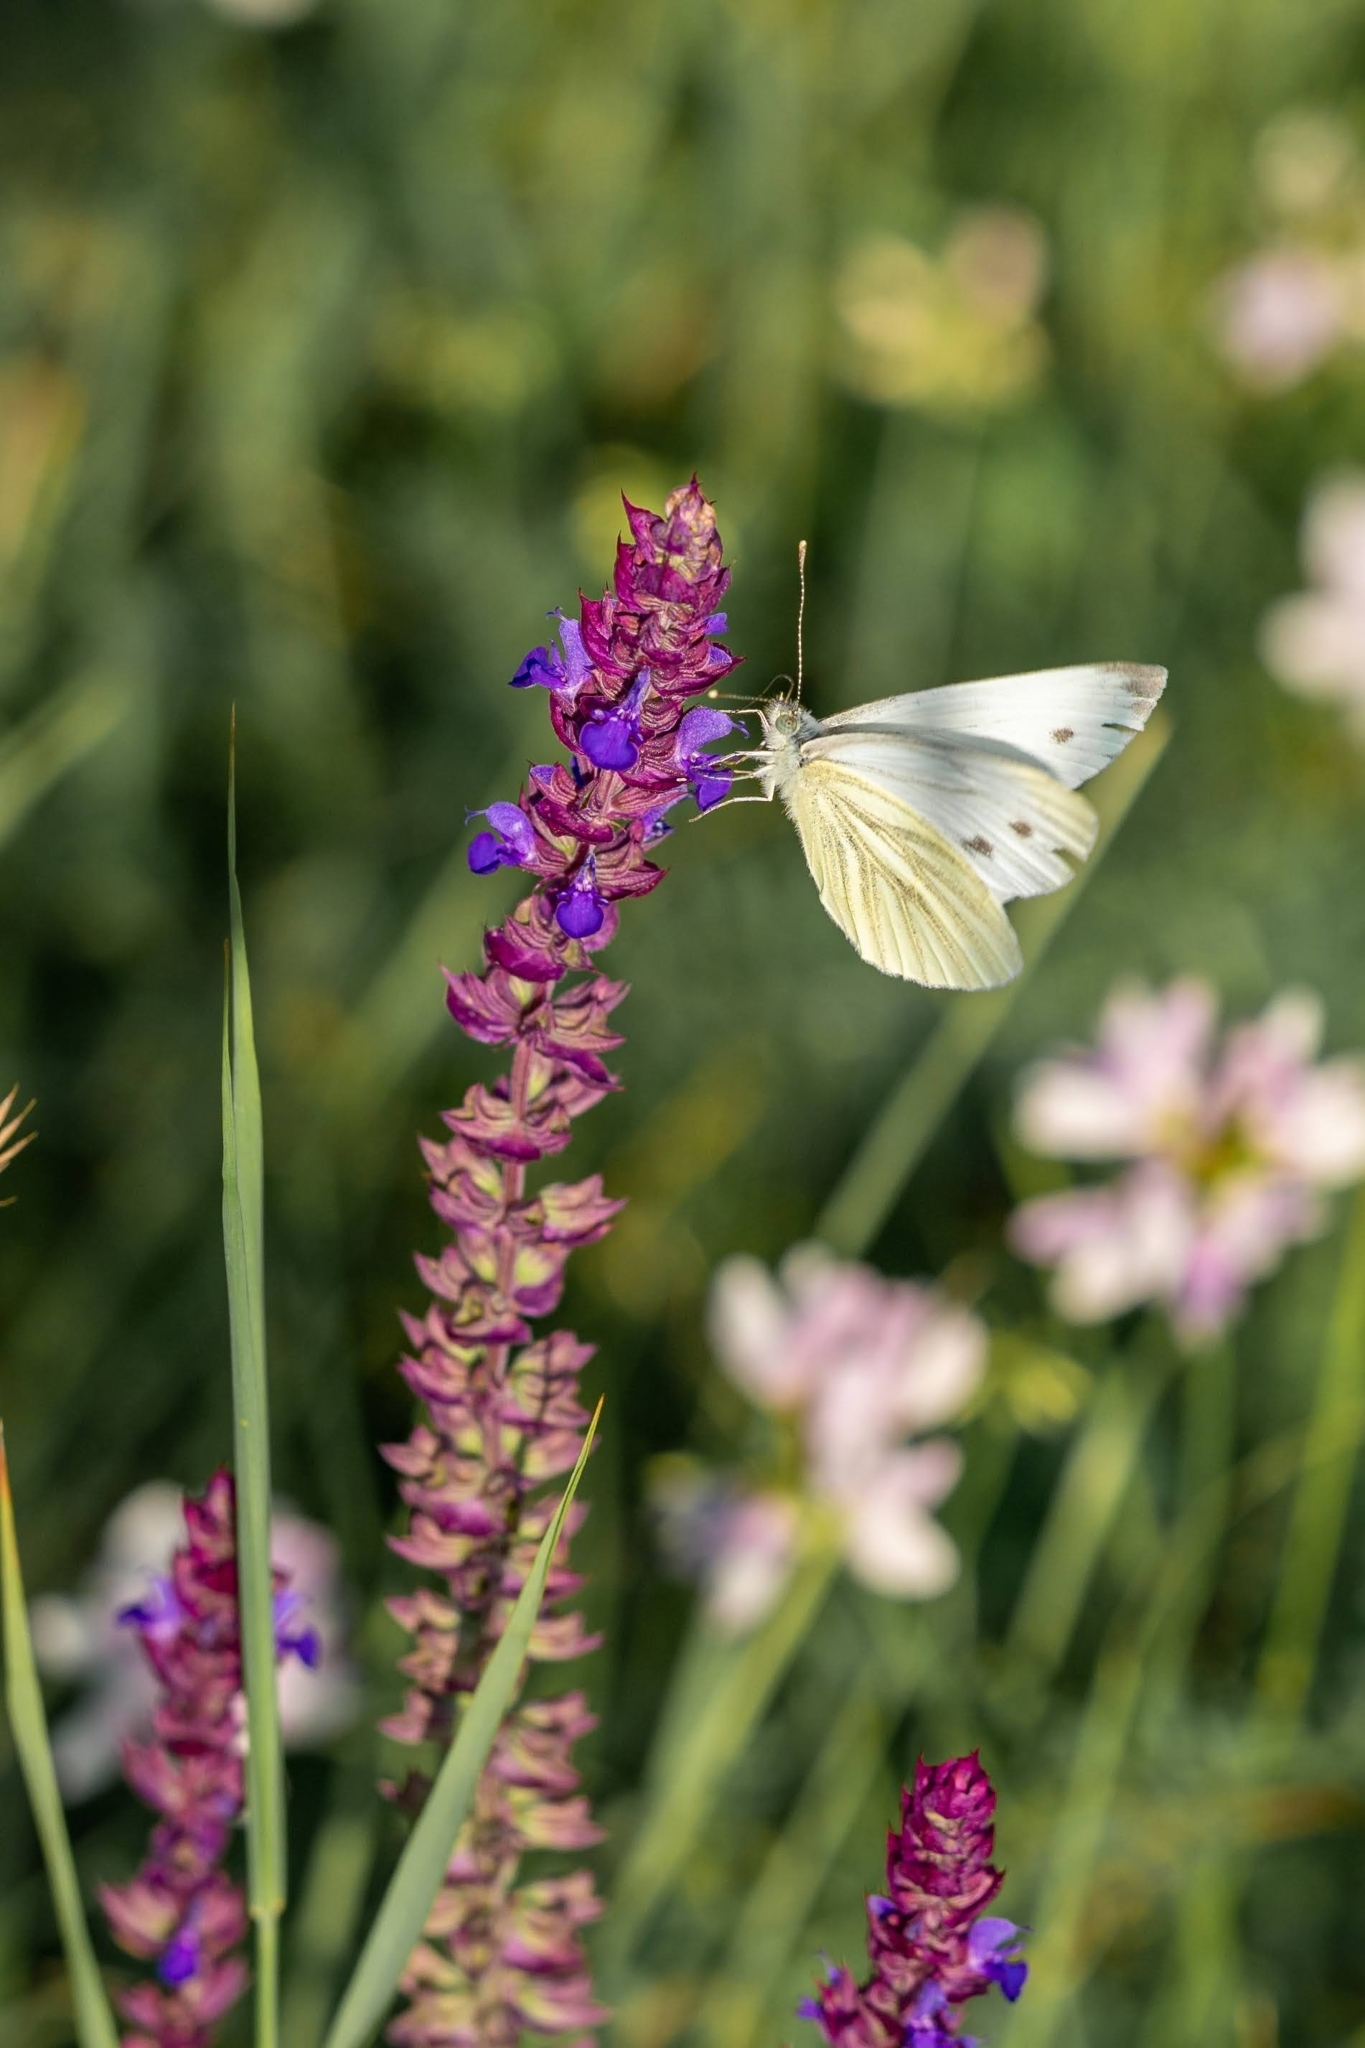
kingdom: Animalia
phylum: Arthropoda
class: Insecta
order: Lepidoptera
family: Pieridae
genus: Pieris
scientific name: Pieris napi
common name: Green-veined white
